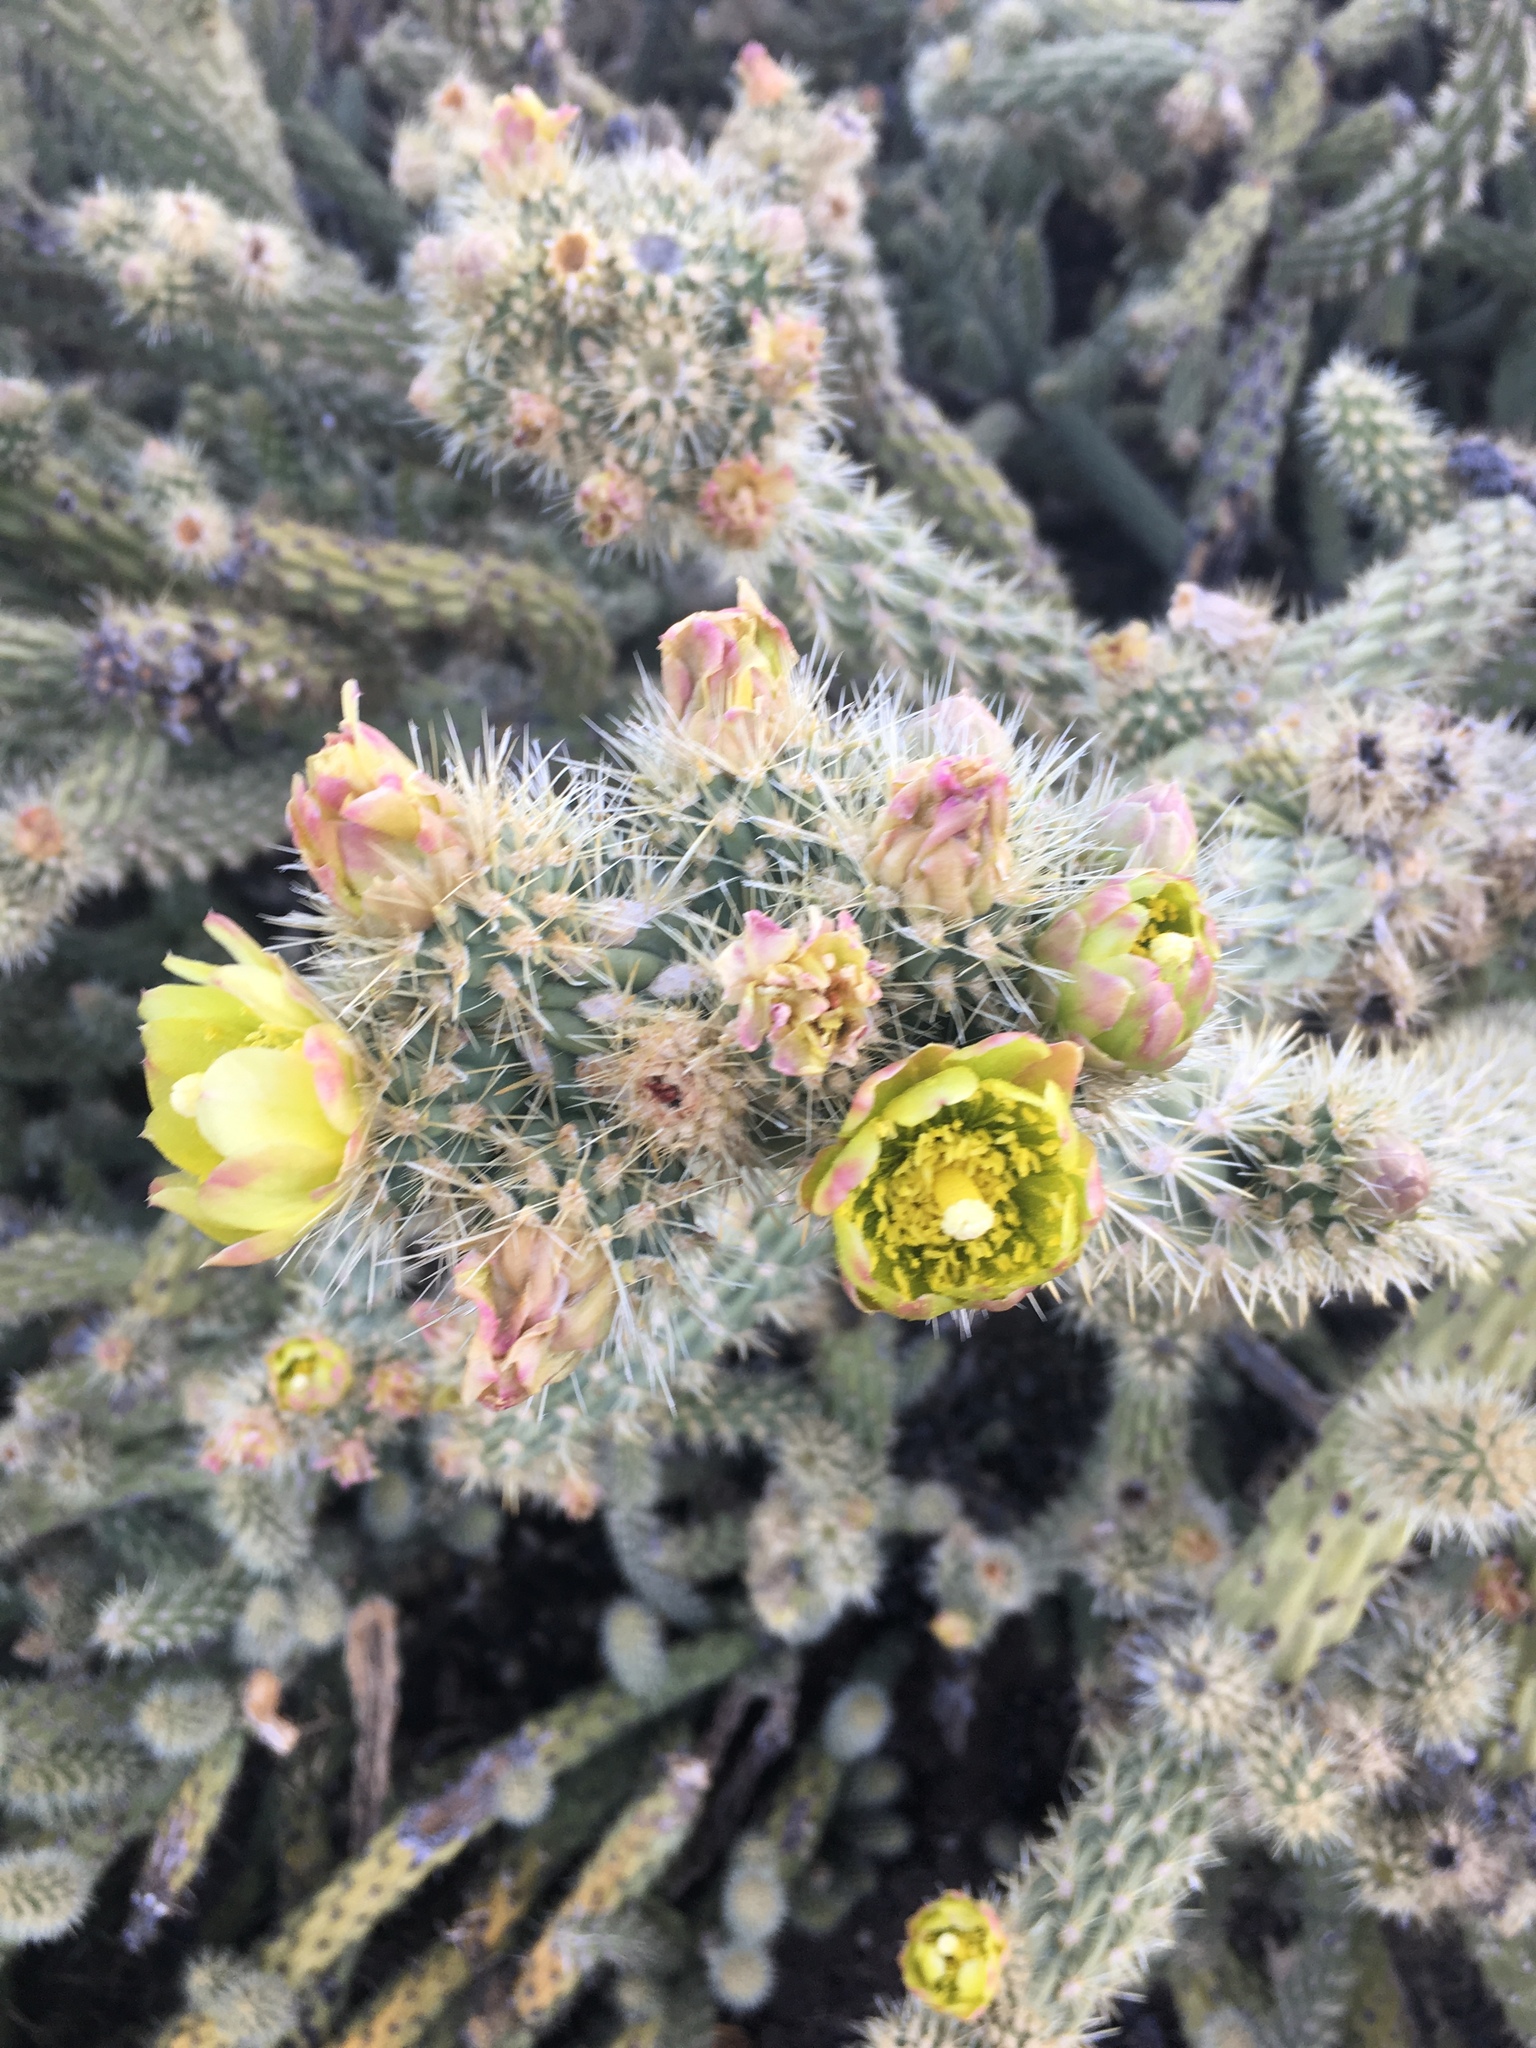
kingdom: Plantae
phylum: Tracheophyta
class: Magnoliopsida
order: Caryophyllales
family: Cactaceae
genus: Cylindropuntia
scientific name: Cylindropuntia bernardina
